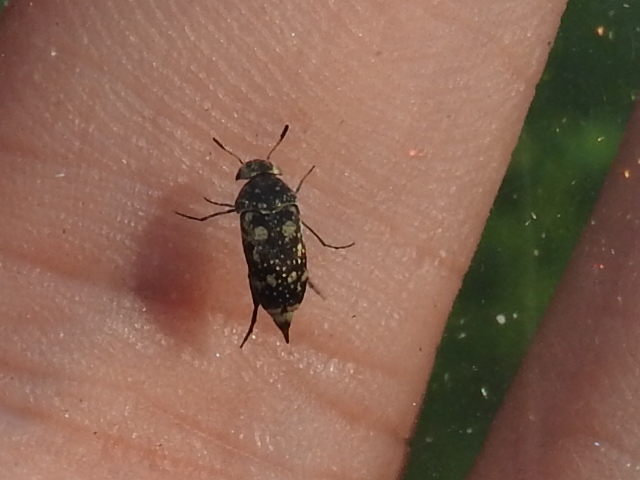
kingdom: Animalia
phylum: Arthropoda
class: Insecta
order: Coleoptera
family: Mordellidae
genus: Mordellaria
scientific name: Mordellaria serval
